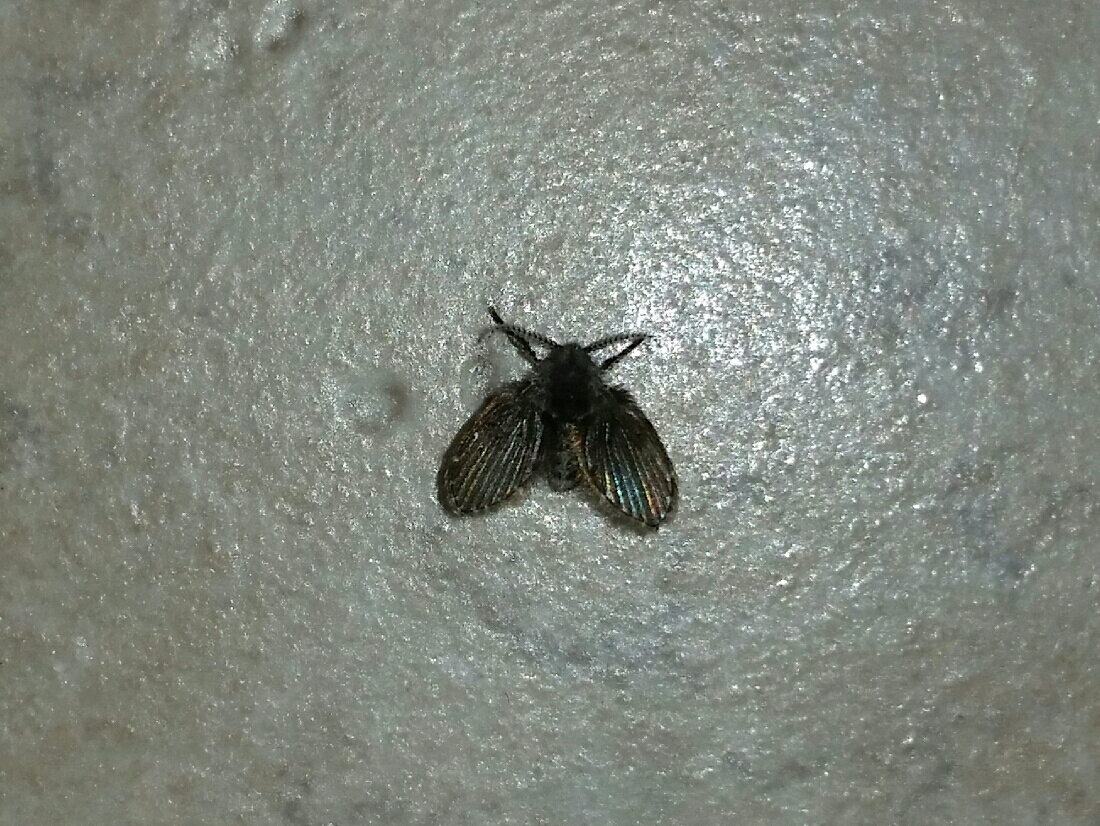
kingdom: Animalia
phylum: Arthropoda
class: Insecta
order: Diptera
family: Psychodidae
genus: Clogmia
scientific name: Clogmia albipunctatus
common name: White-spotted moth fly
